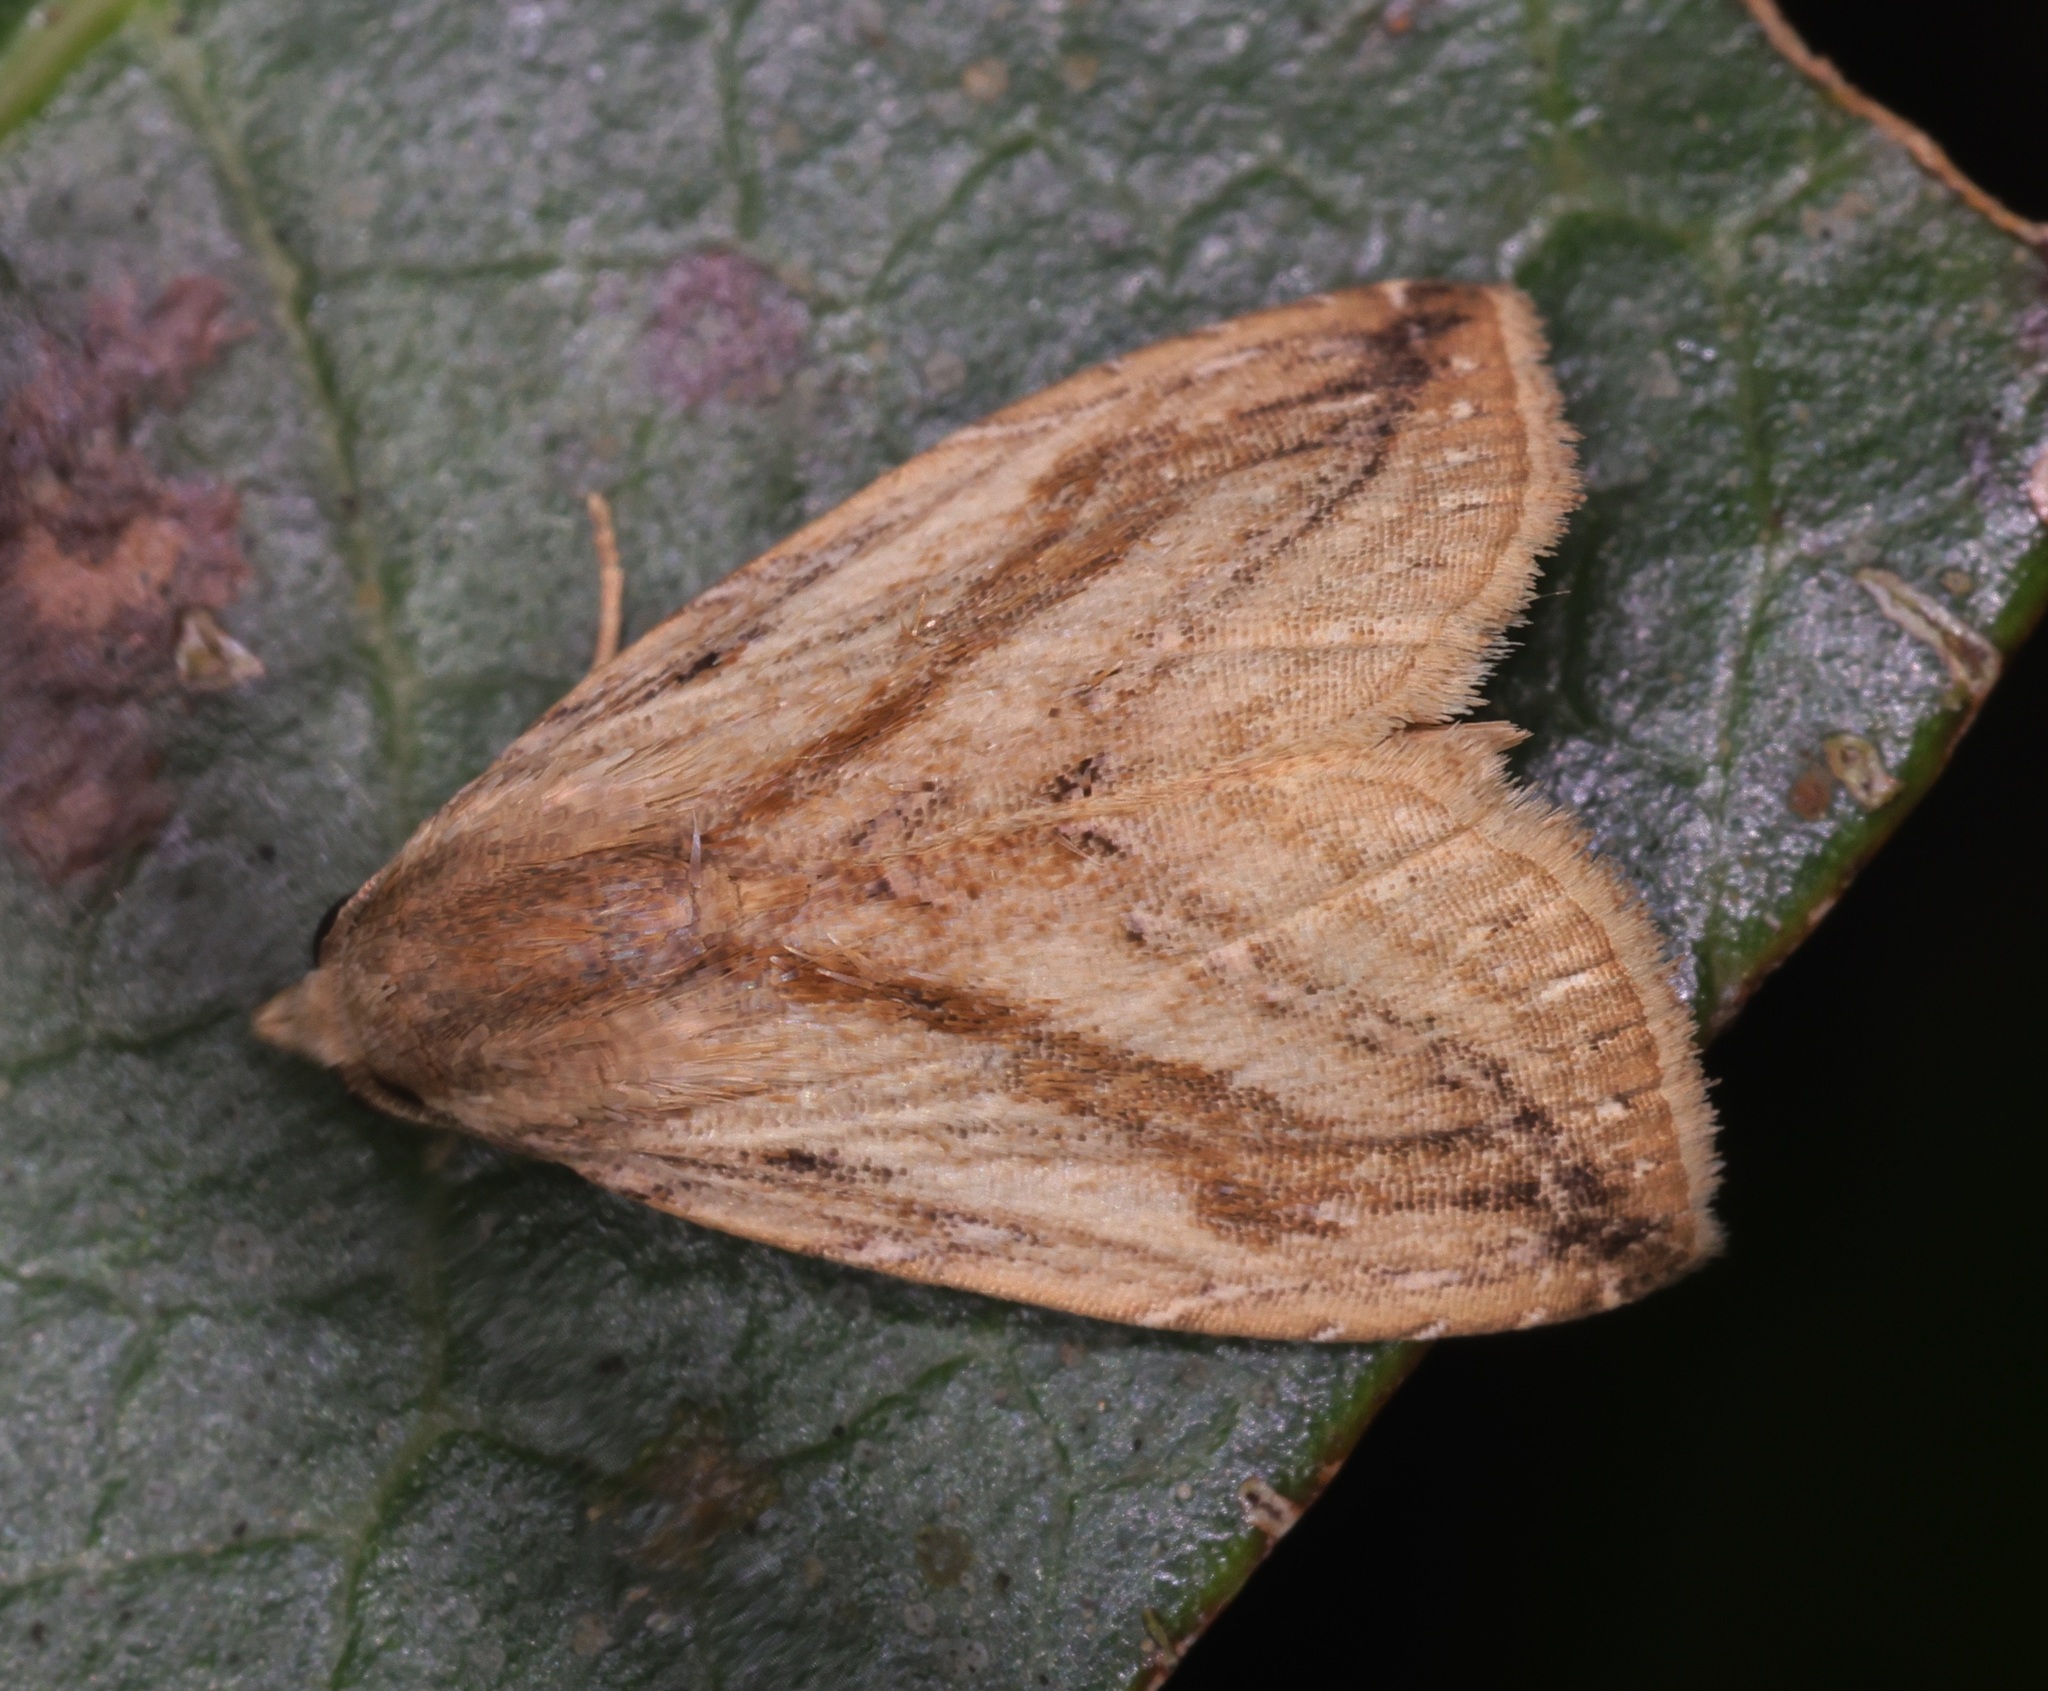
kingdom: Animalia
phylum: Arthropoda
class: Insecta
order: Lepidoptera
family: Erebidae
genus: Rivula
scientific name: Rivula
